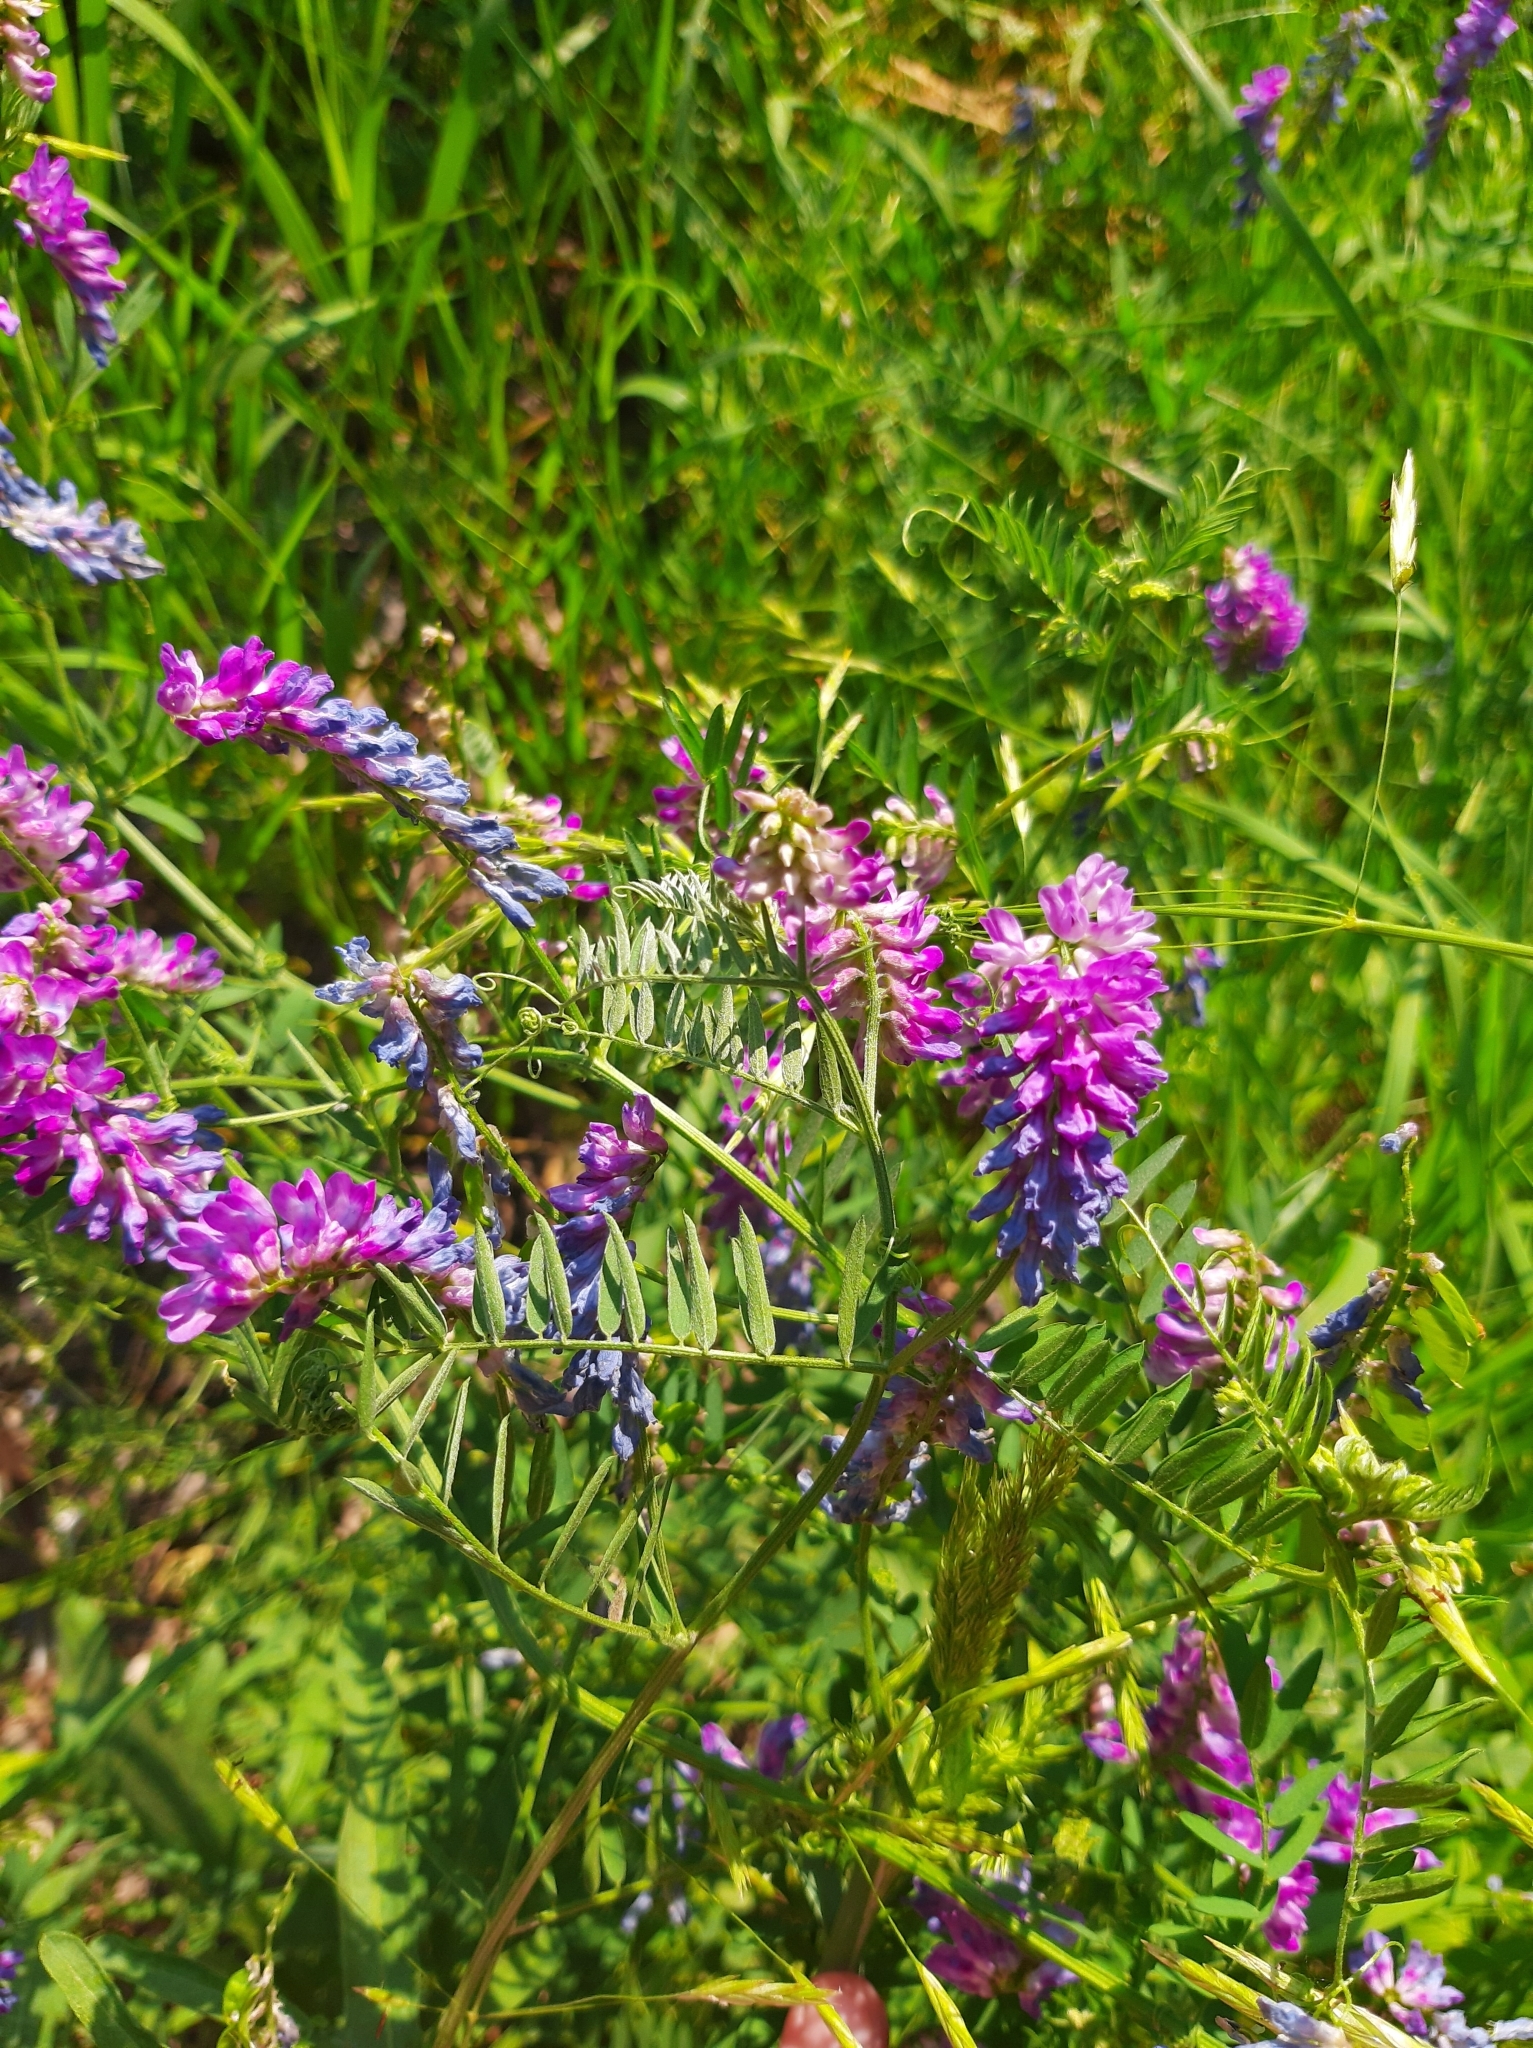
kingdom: Plantae
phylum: Tracheophyta
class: Magnoliopsida
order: Fabales
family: Fabaceae
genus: Vicia
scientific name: Vicia cracca
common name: Bird vetch
